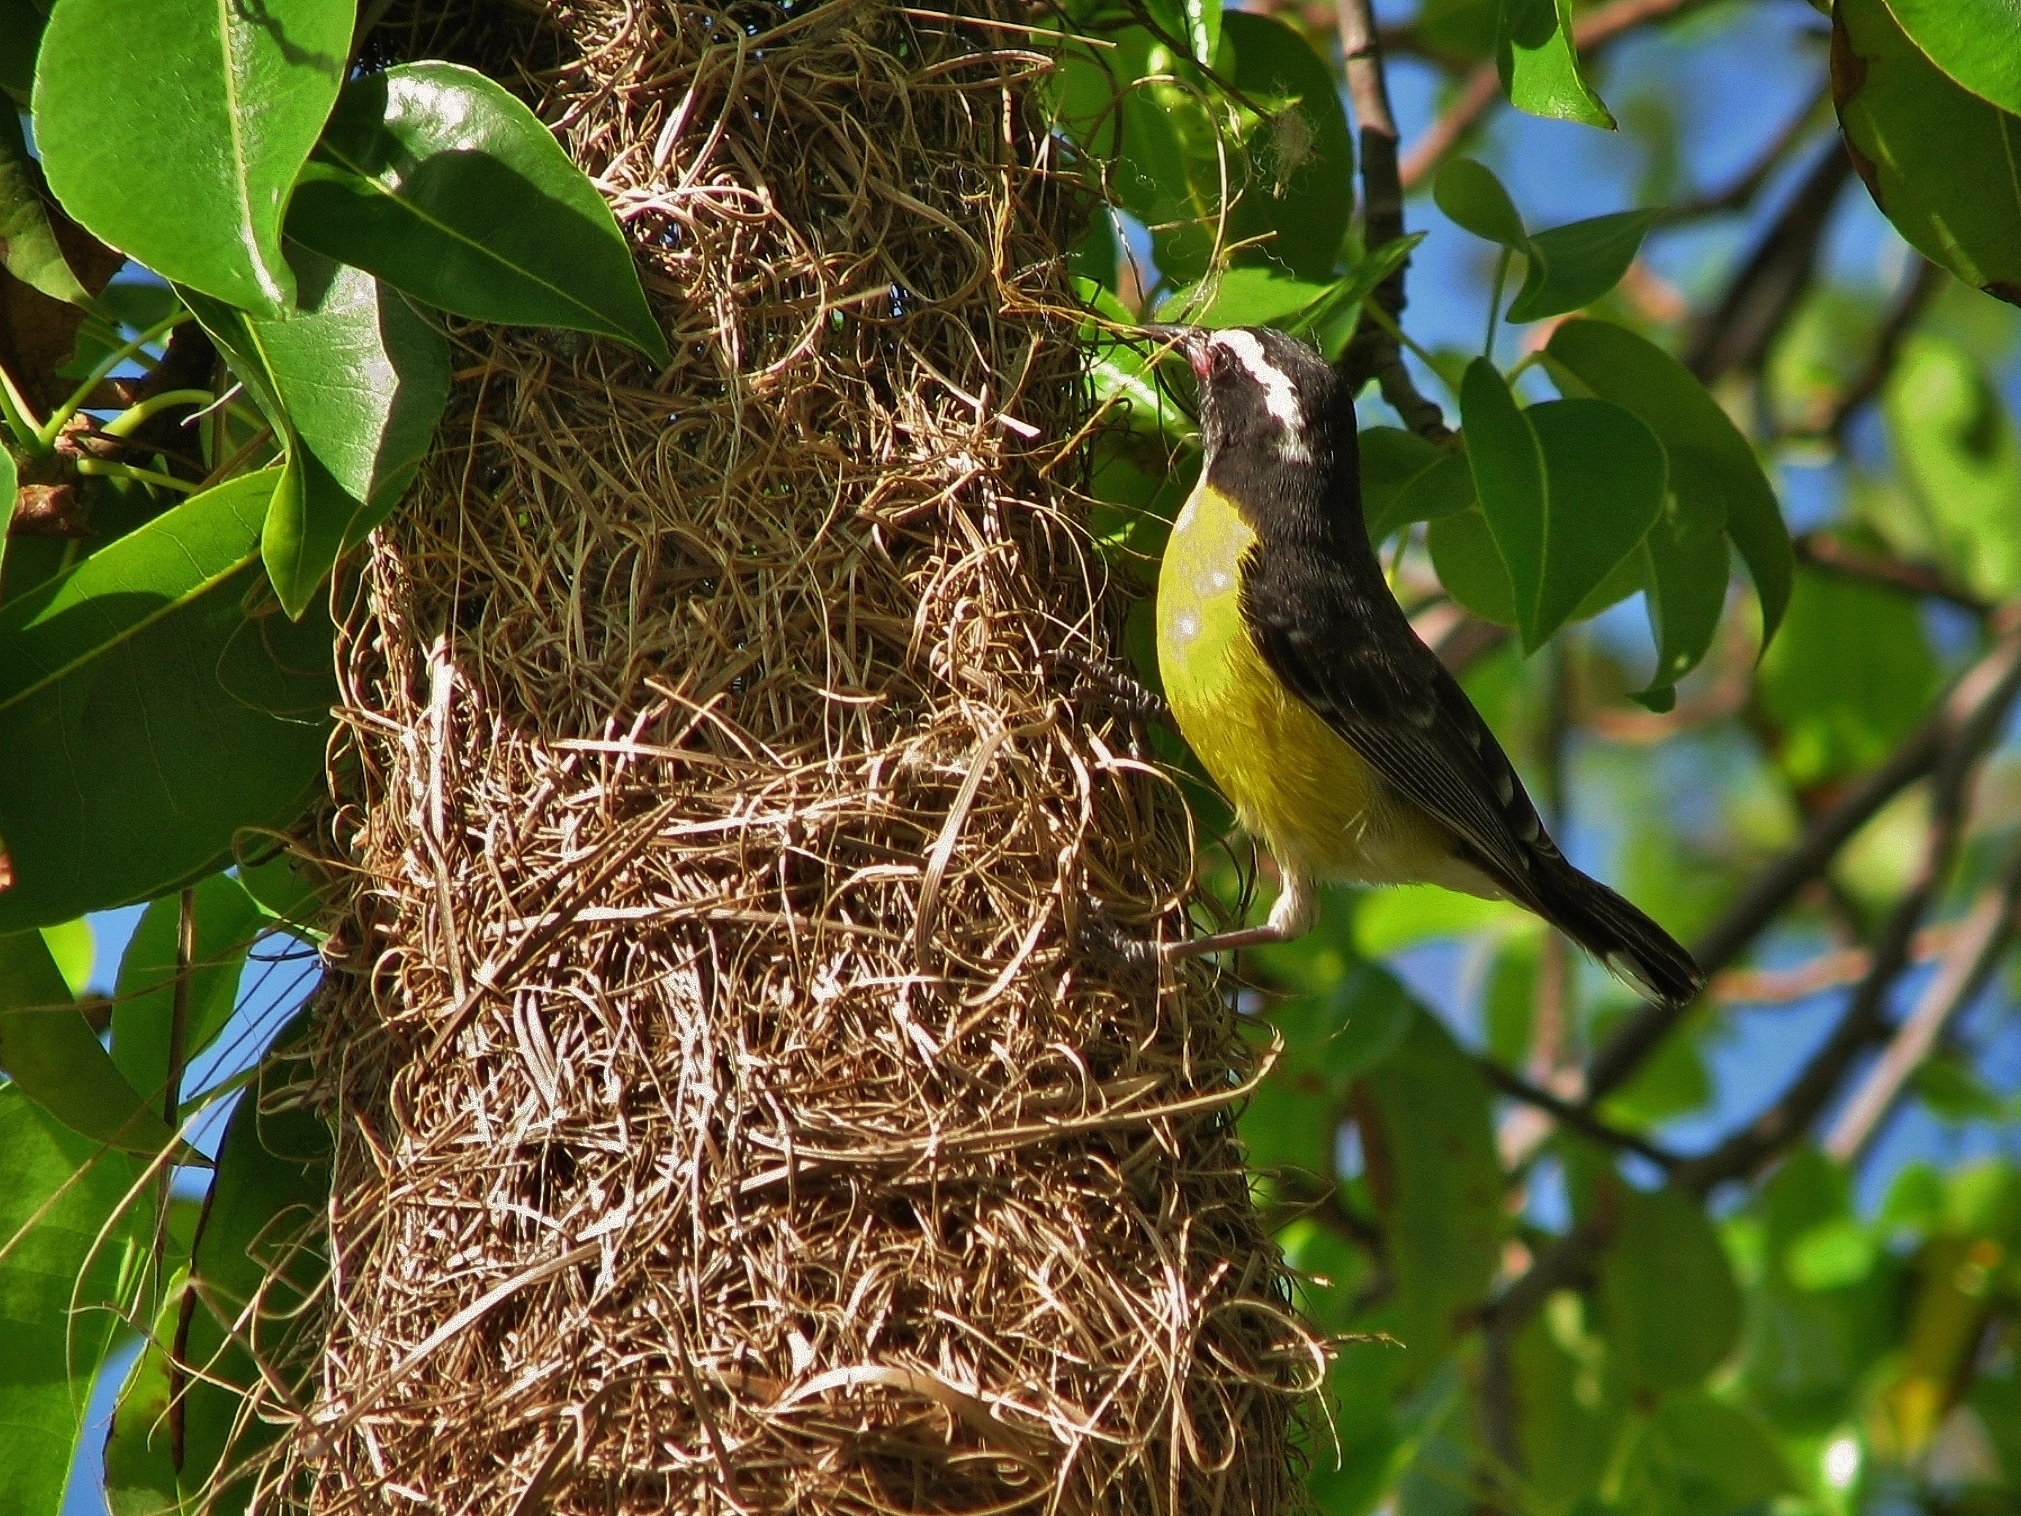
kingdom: Animalia
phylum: Chordata
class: Aves
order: Passeriformes
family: Thraupidae
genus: Coereba
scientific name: Coereba flaveola
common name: Bananaquit
